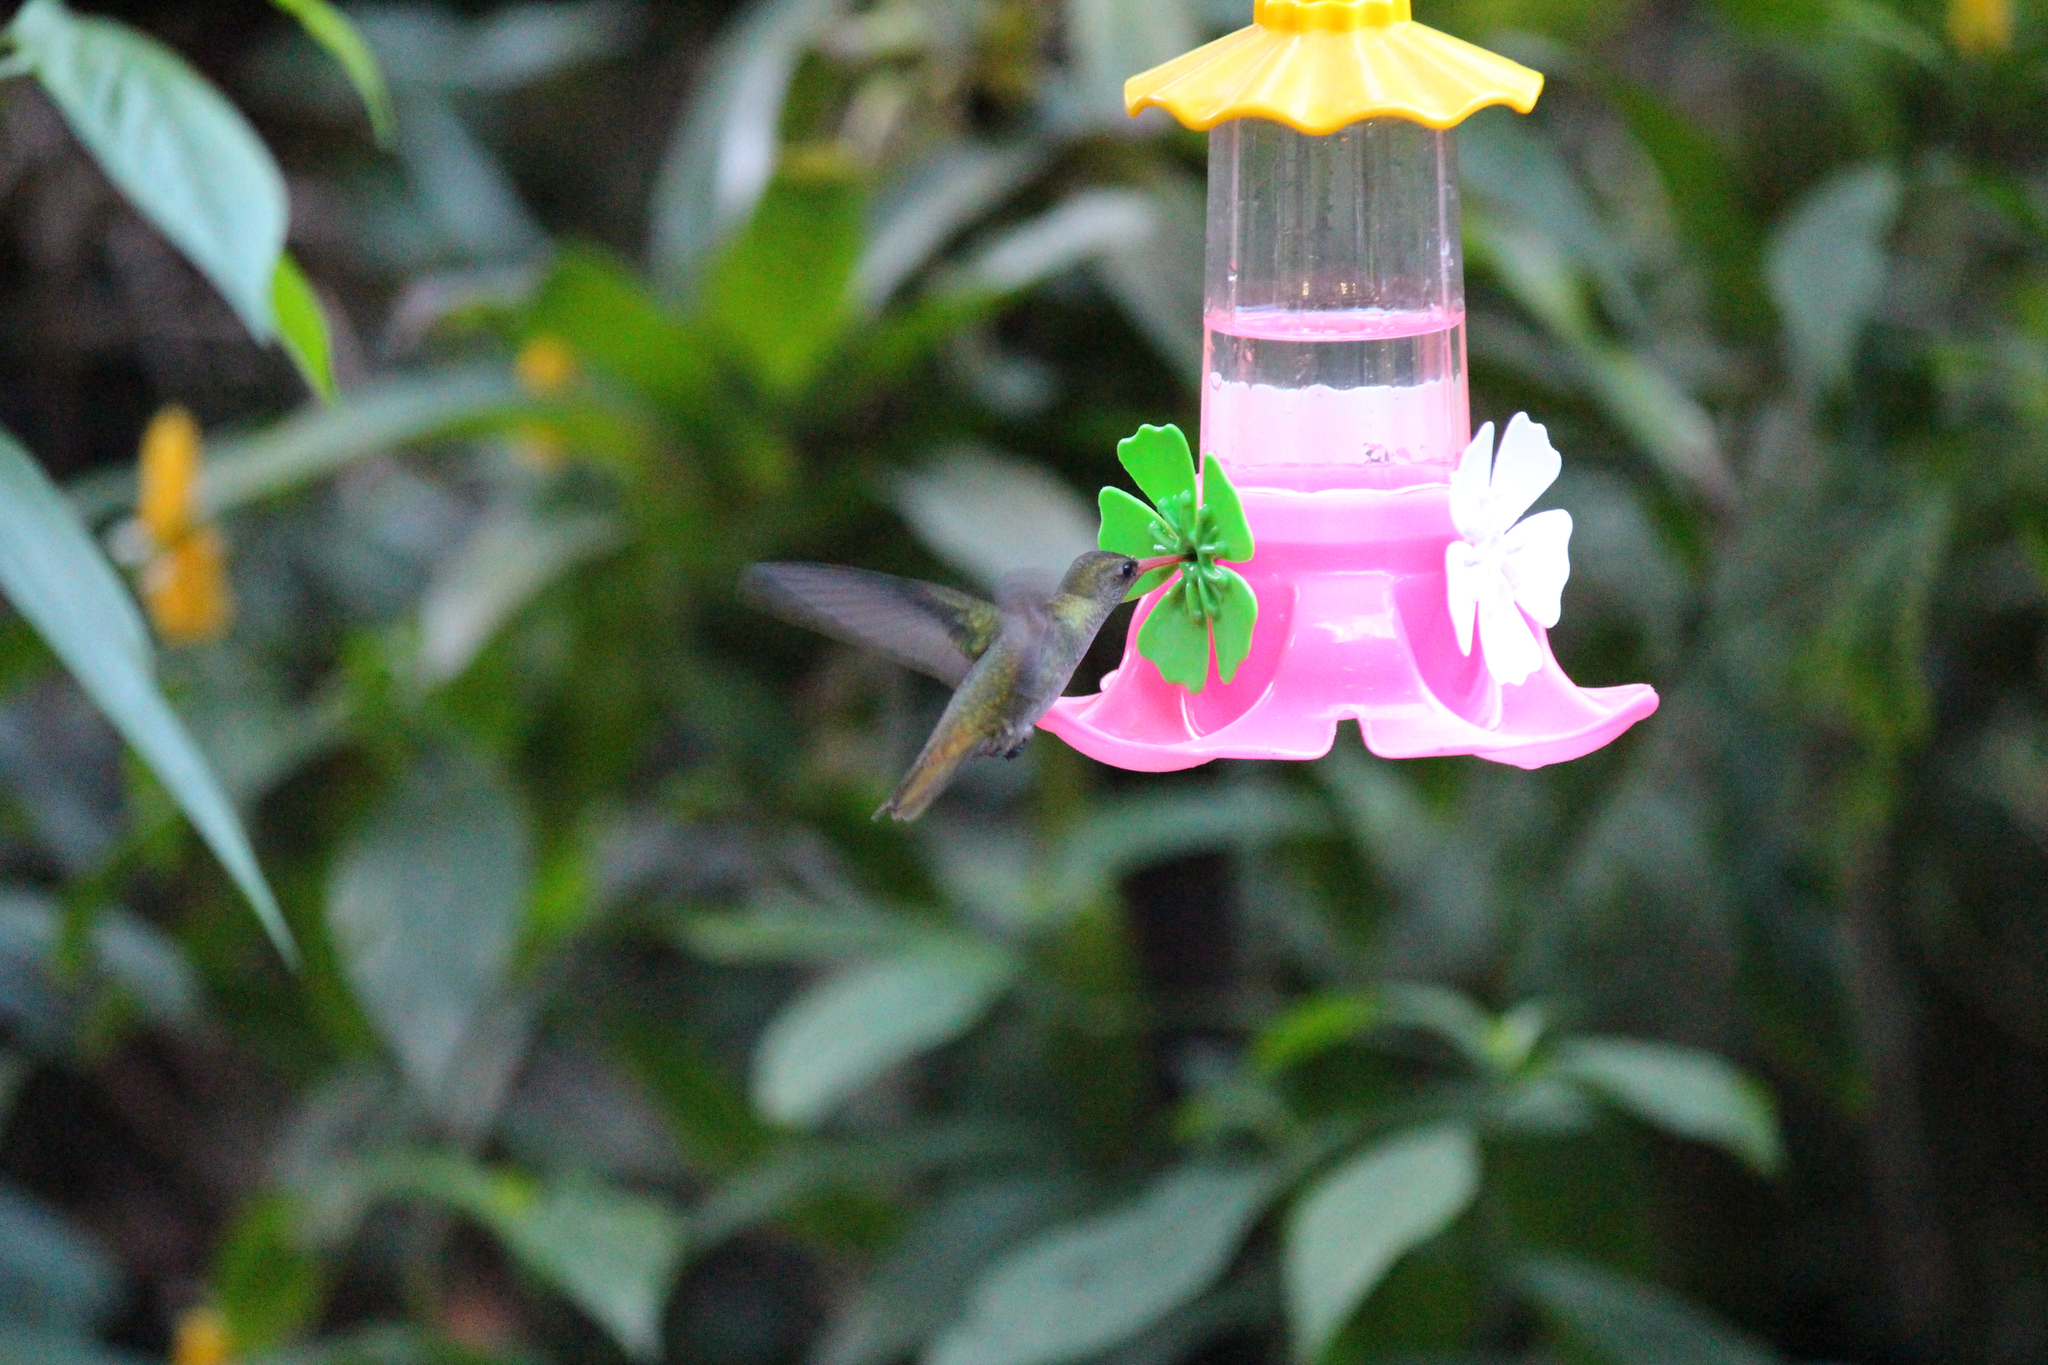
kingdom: Animalia
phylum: Chordata
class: Aves
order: Apodiformes
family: Trochilidae
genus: Hylocharis
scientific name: Hylocharis chrysura
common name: Gilded sapphire
